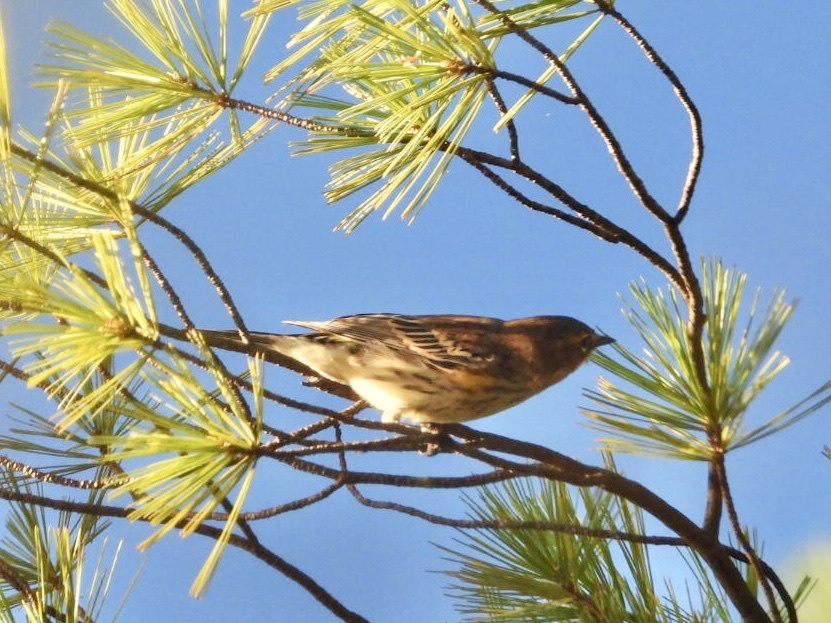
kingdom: Animalia
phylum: Chordata
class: Aves
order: Passeriformes
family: Parulidae
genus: Setophaga
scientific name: Setophaga coronata
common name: Myrtle warbler
